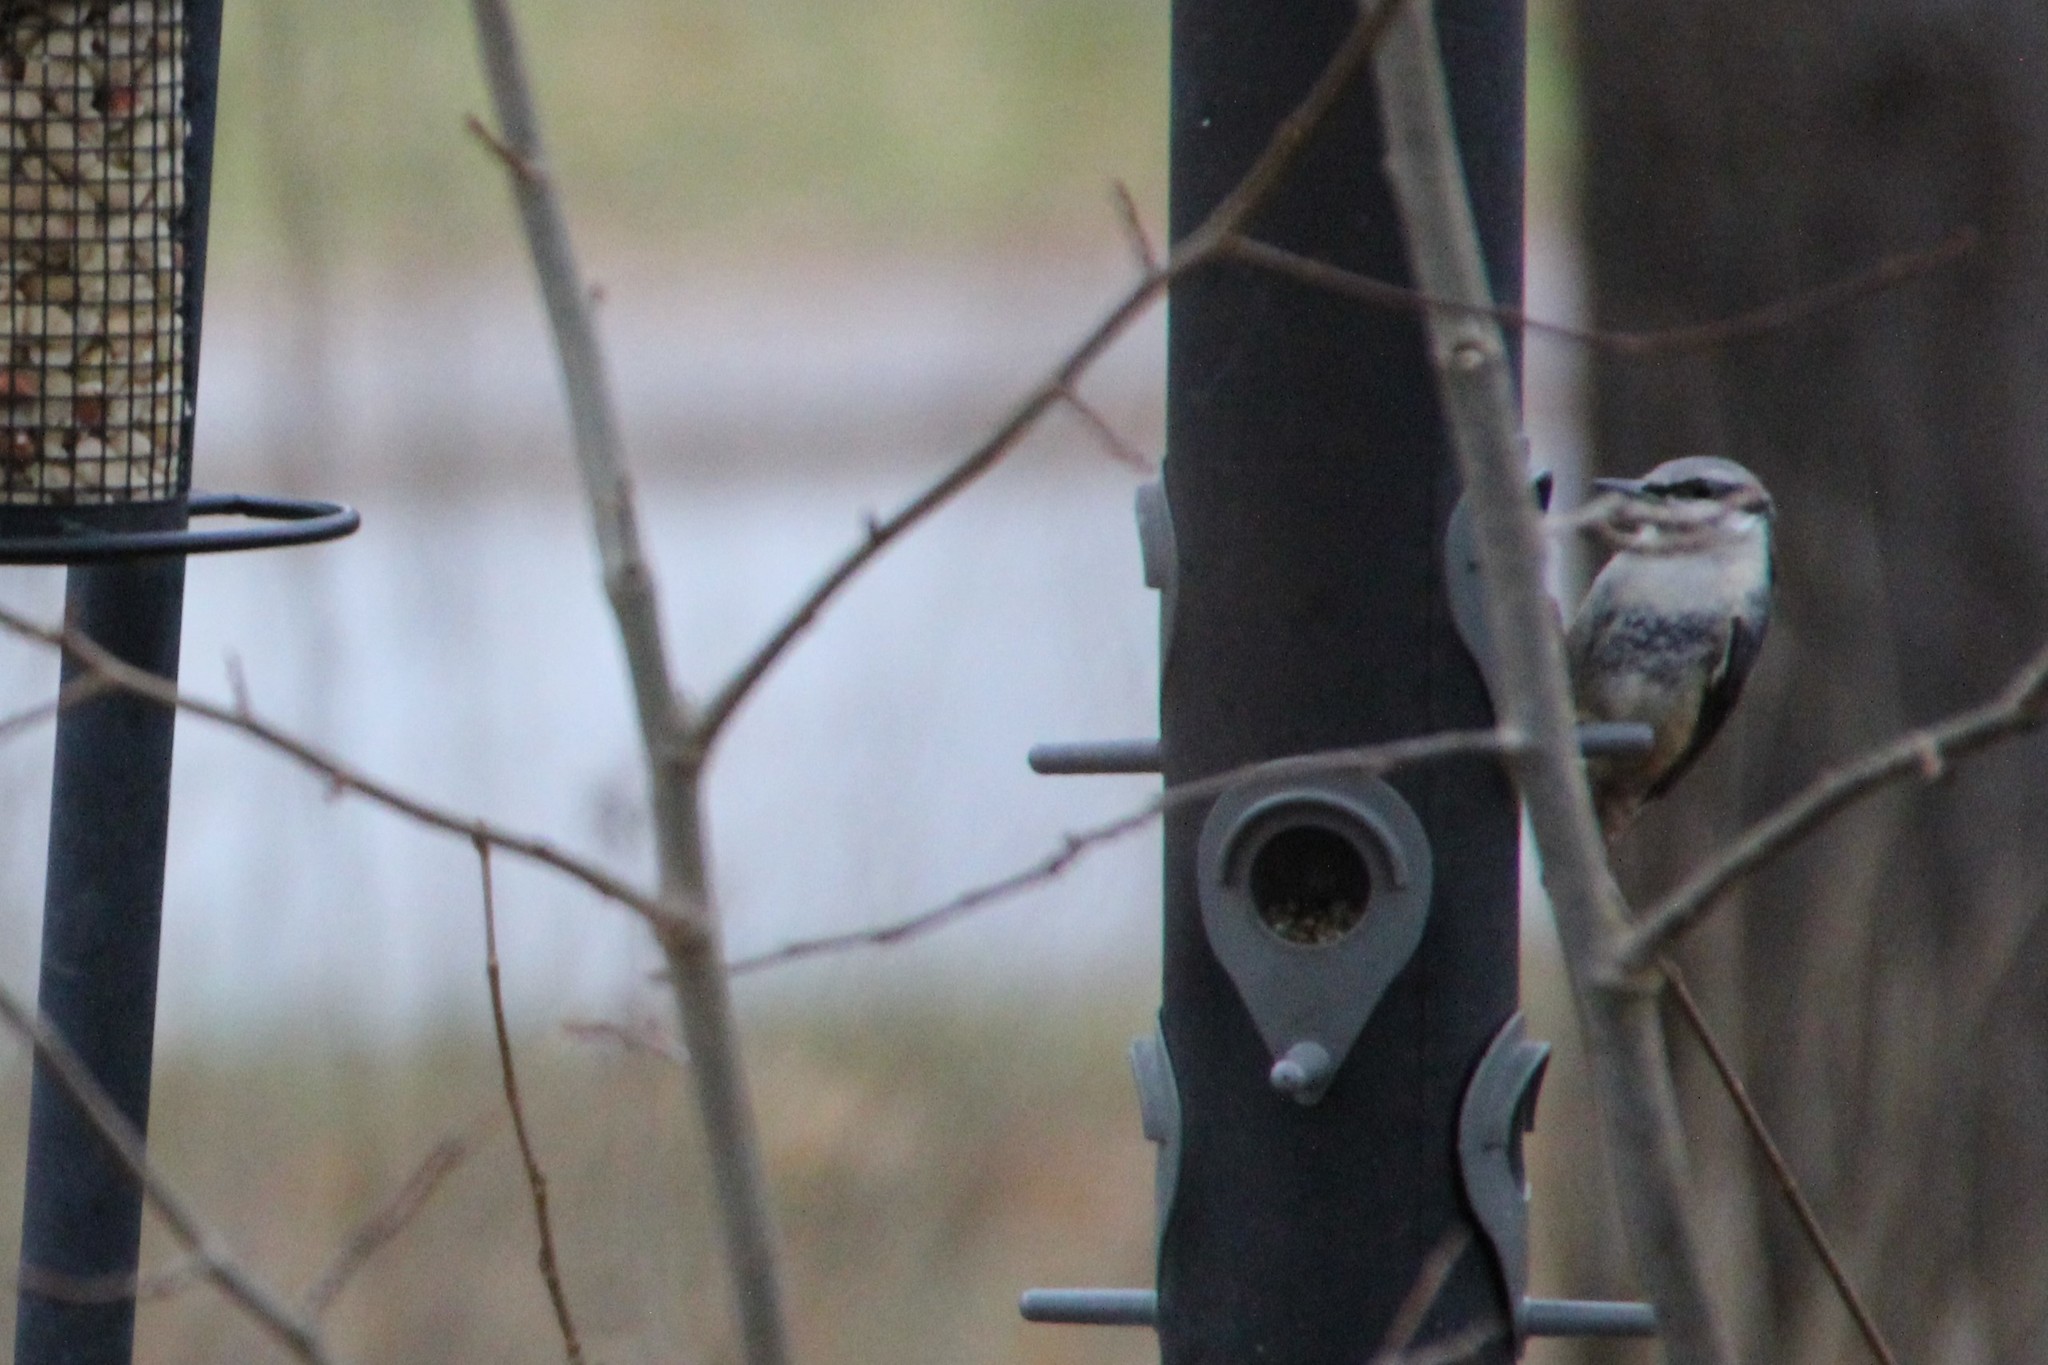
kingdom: Animalia
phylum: Chordata
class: Aves
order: Passeriformes
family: Sittidae
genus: Sitta
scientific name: Sitta europaea
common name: Eurasian nuthatch
